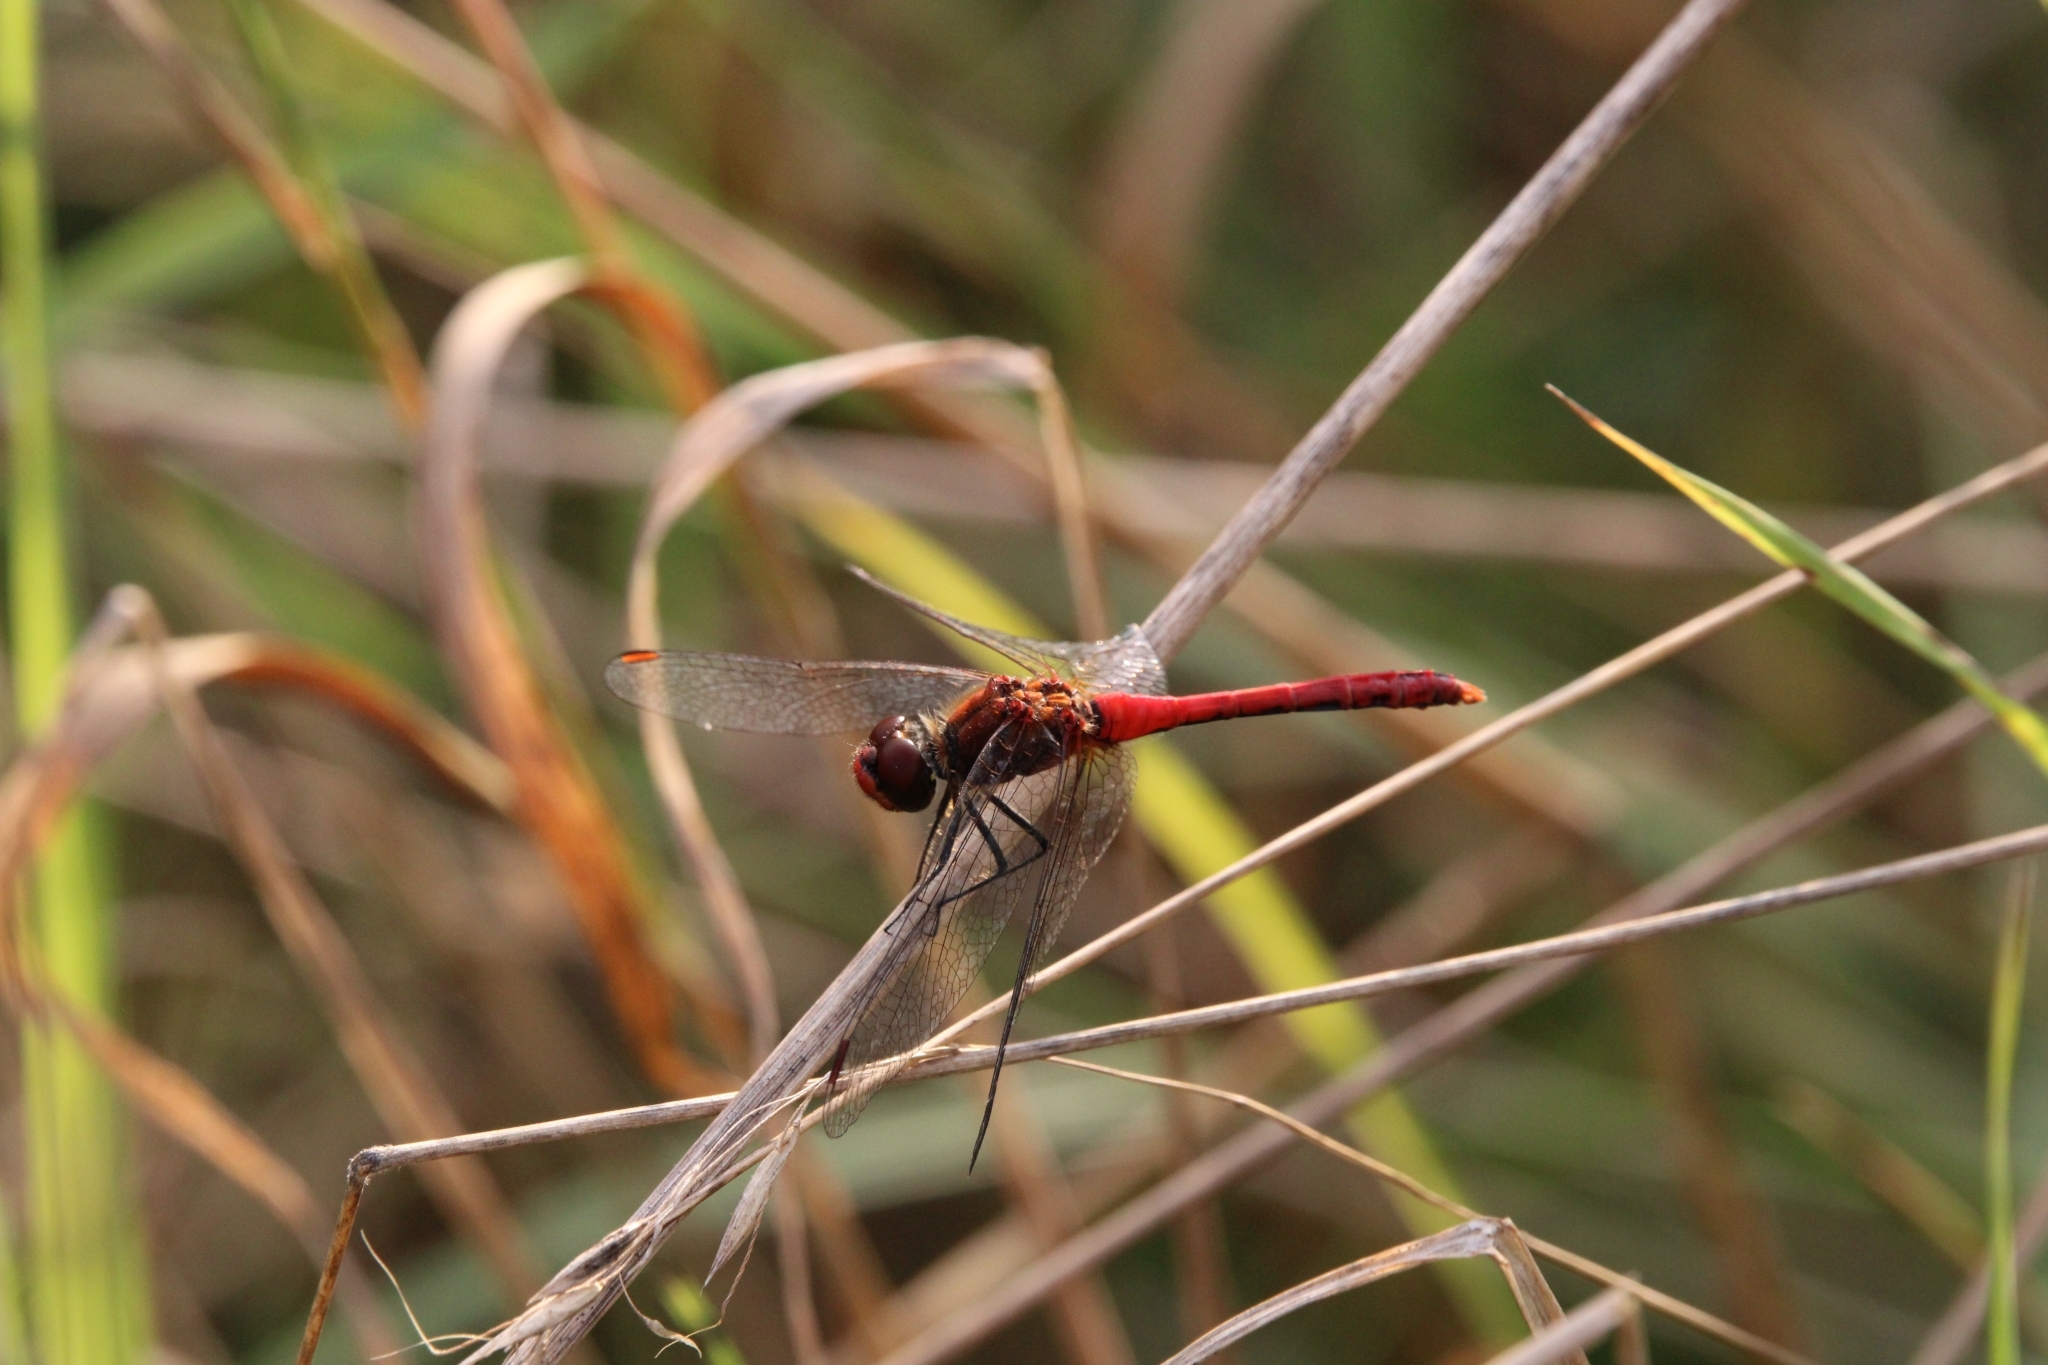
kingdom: Animalia
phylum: Arthropoda
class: Insecta
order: Odonata
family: Libellulidae
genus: Sympetrum
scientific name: Sympetrum sanguineum
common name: Ruddy darter
